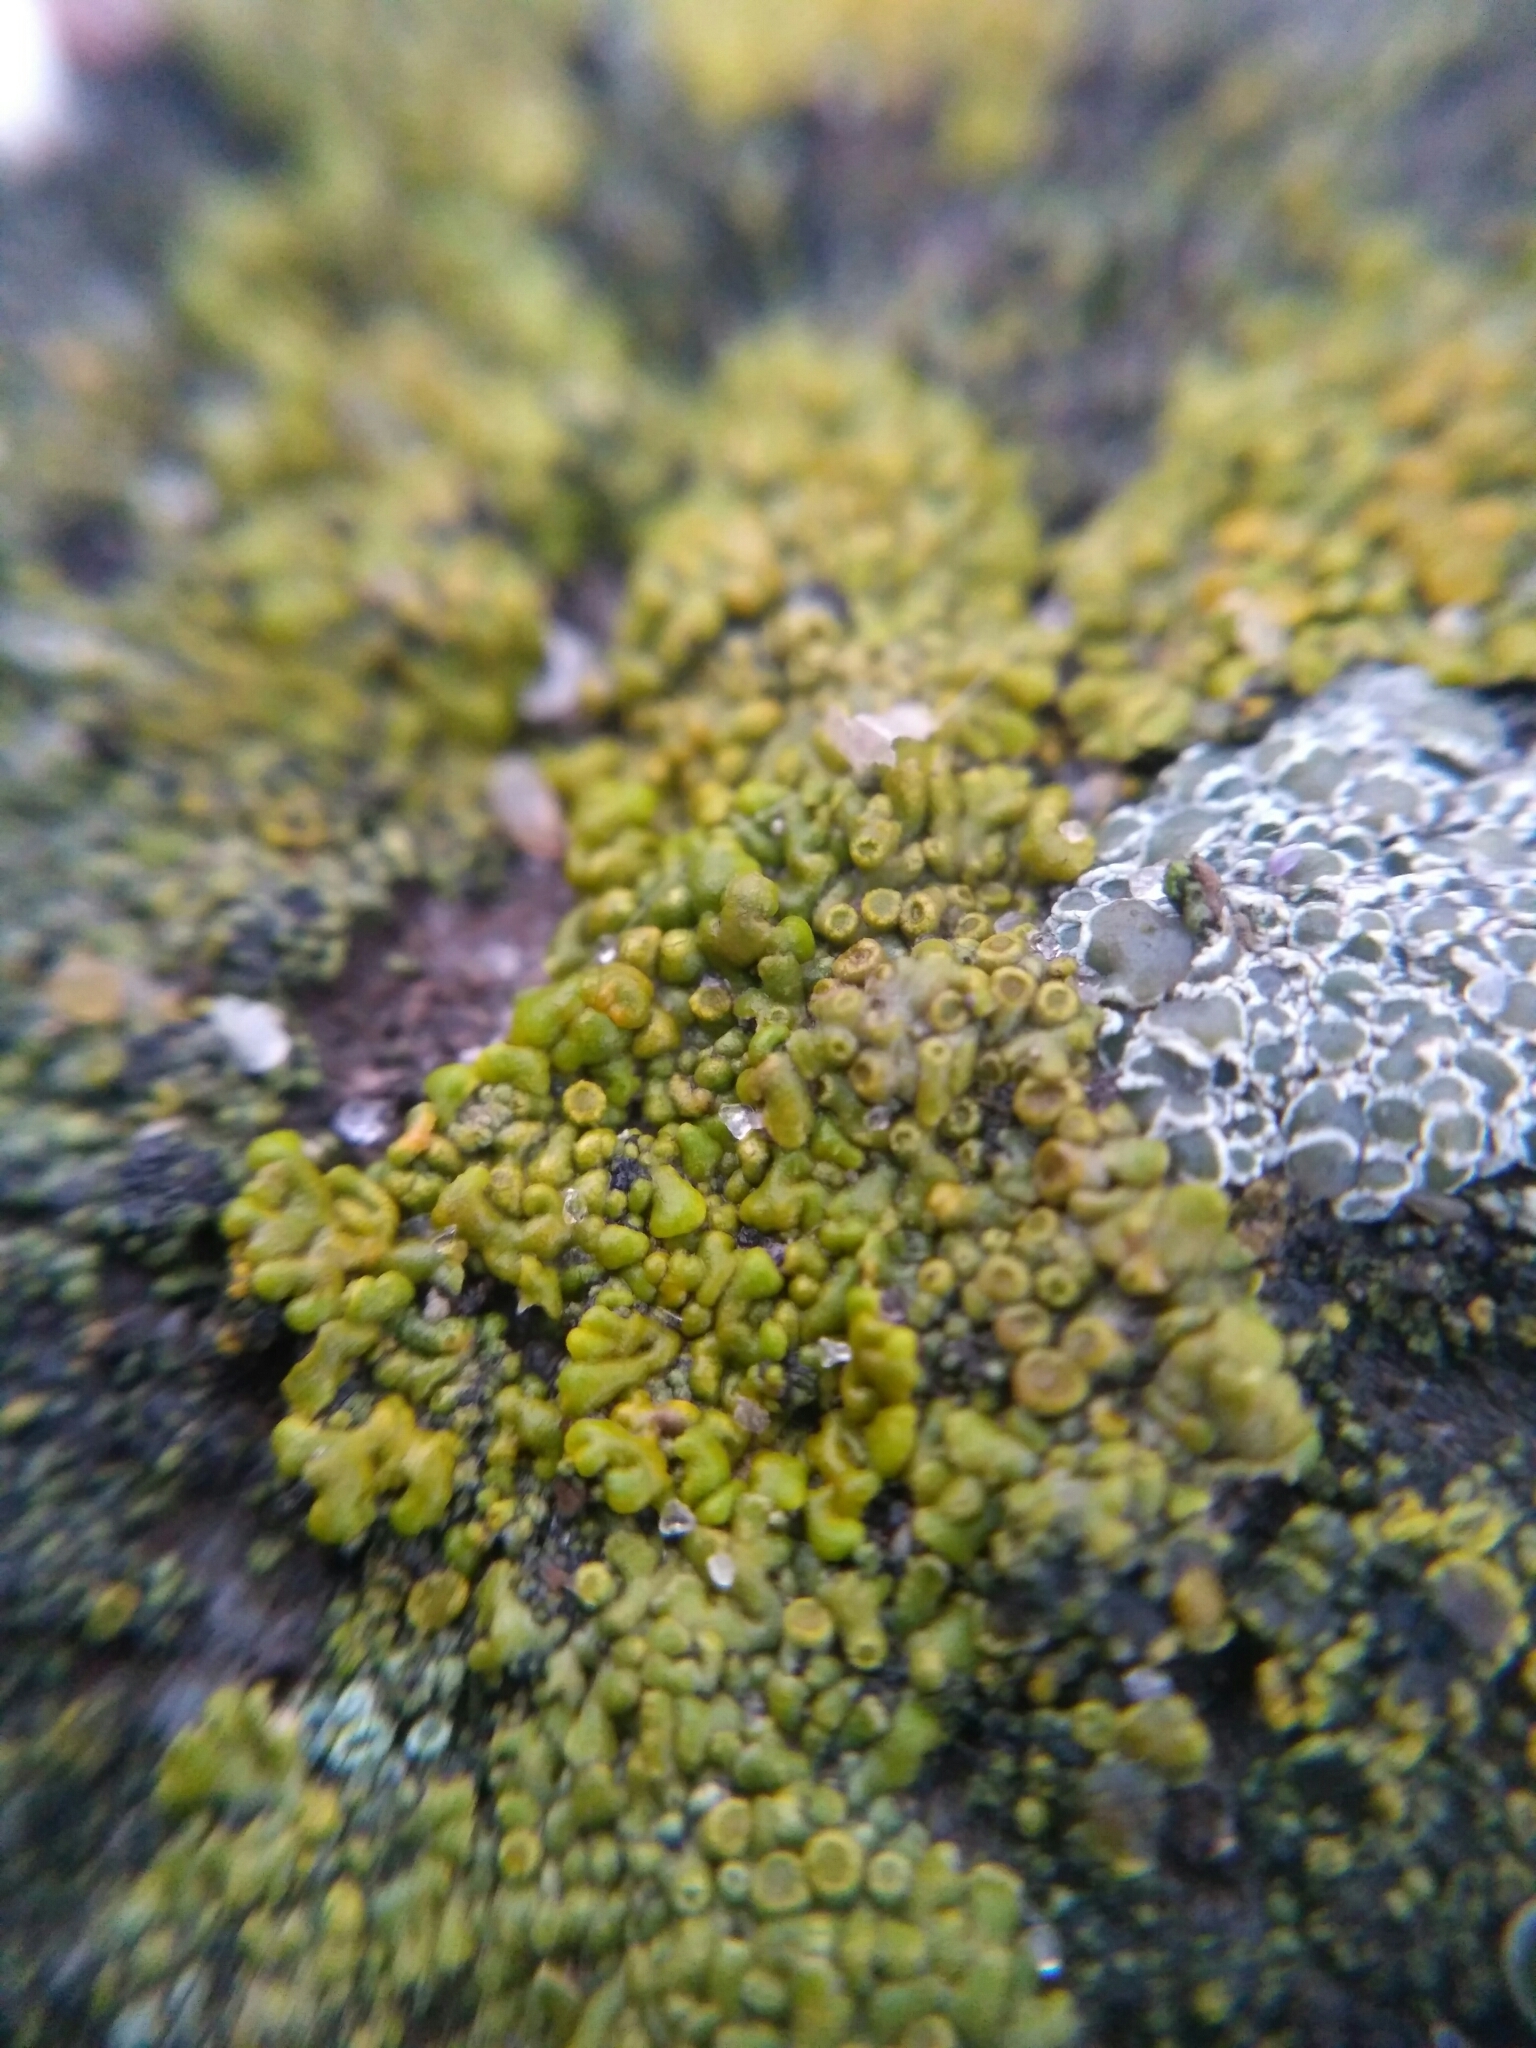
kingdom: Fungi
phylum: Ascomycota
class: Lecanoromycetes
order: Teloschistales
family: Teloschistaceae
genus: Calogaya
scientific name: Calogaya saxicola
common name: Rock jewel lichen
